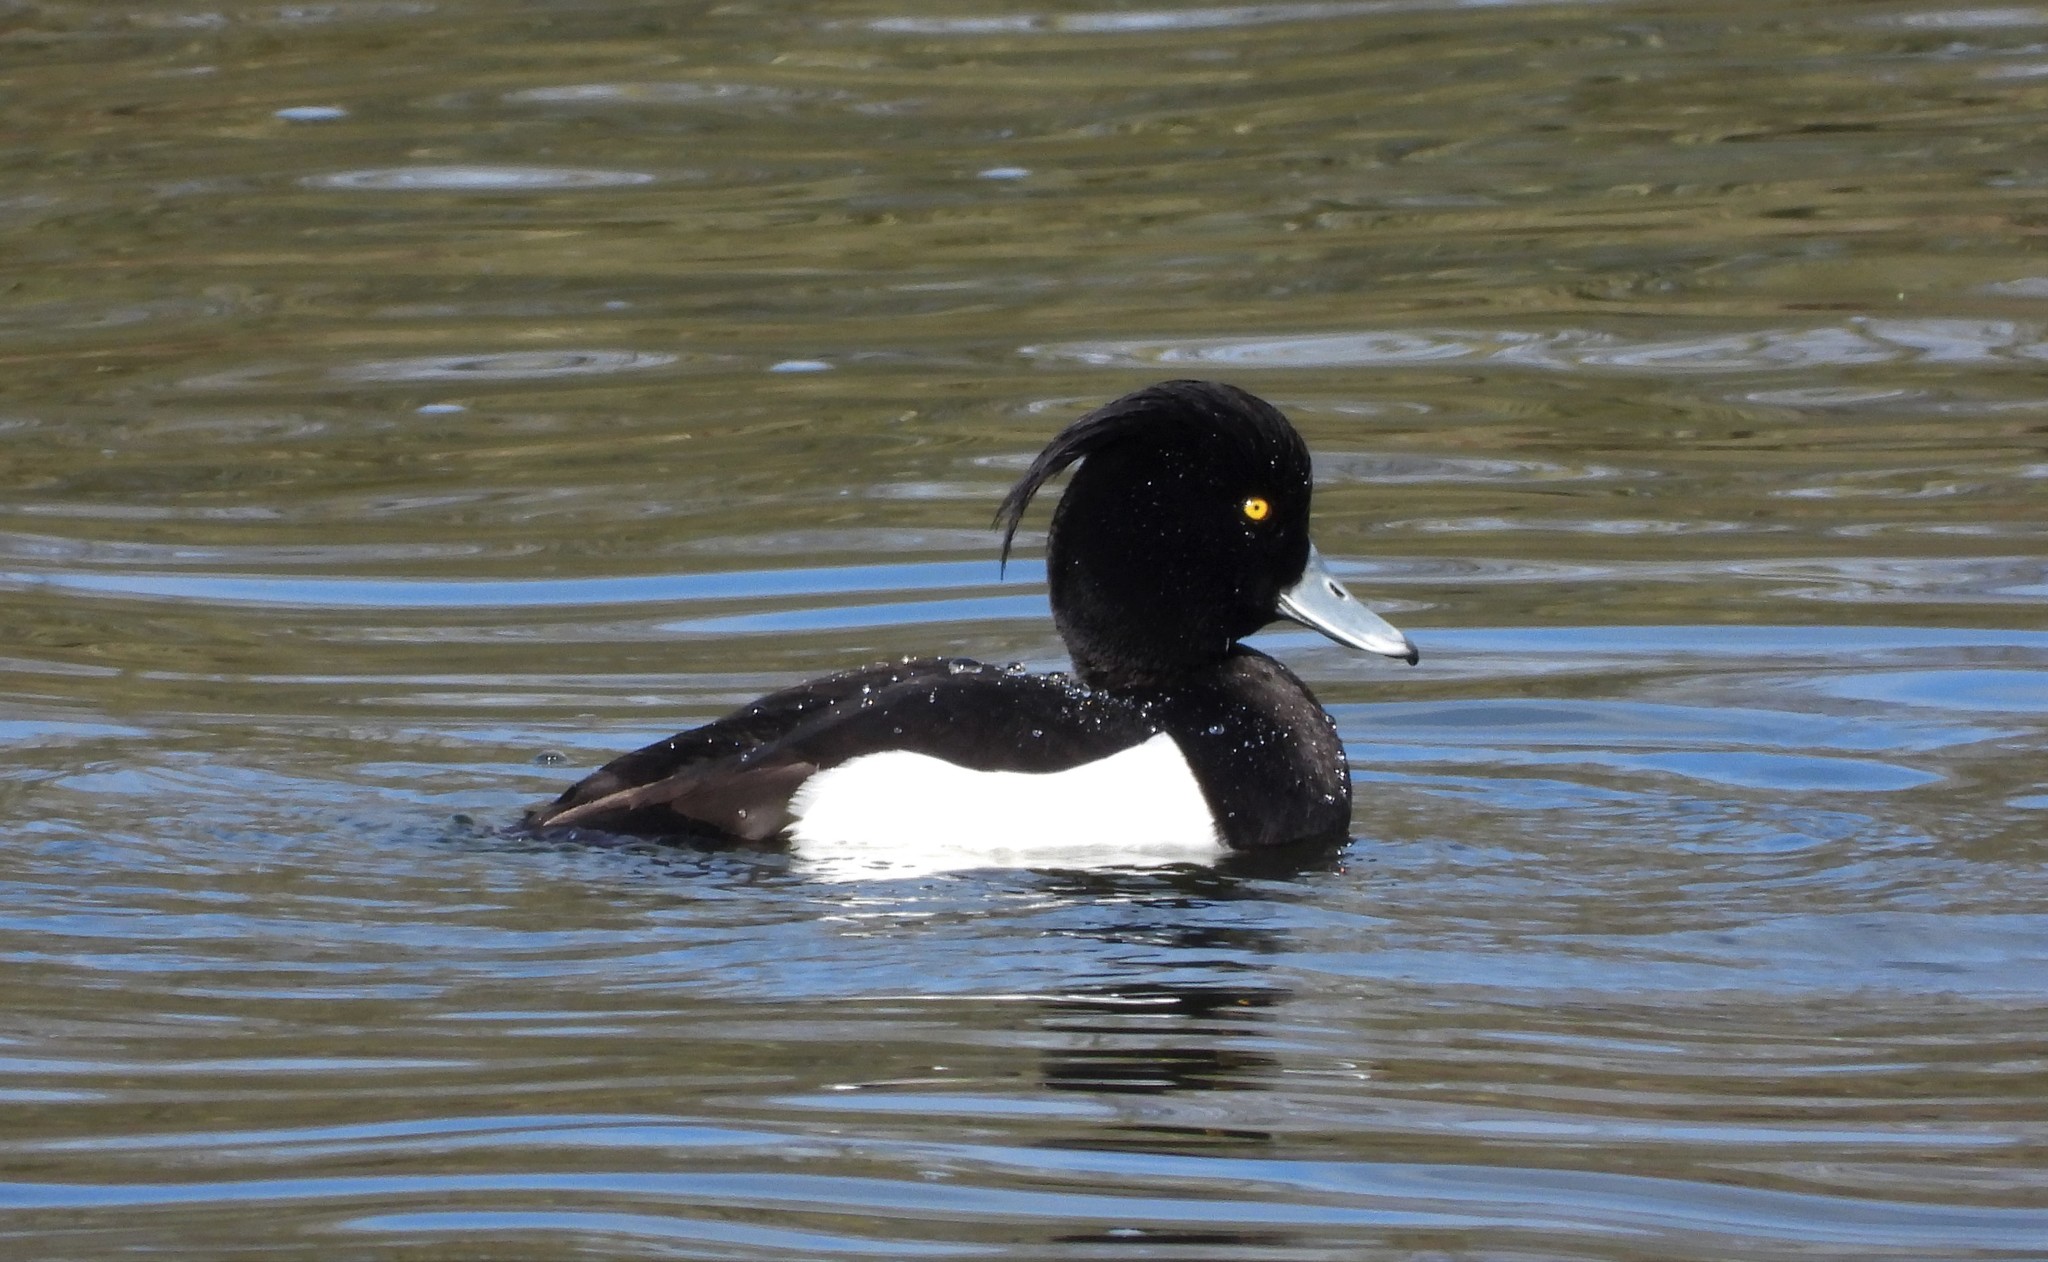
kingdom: Animalia
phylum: Chordata
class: Aves
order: Anseriformes
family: Anatidae
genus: Aythya
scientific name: Aythya fuligula
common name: Tufted duck
